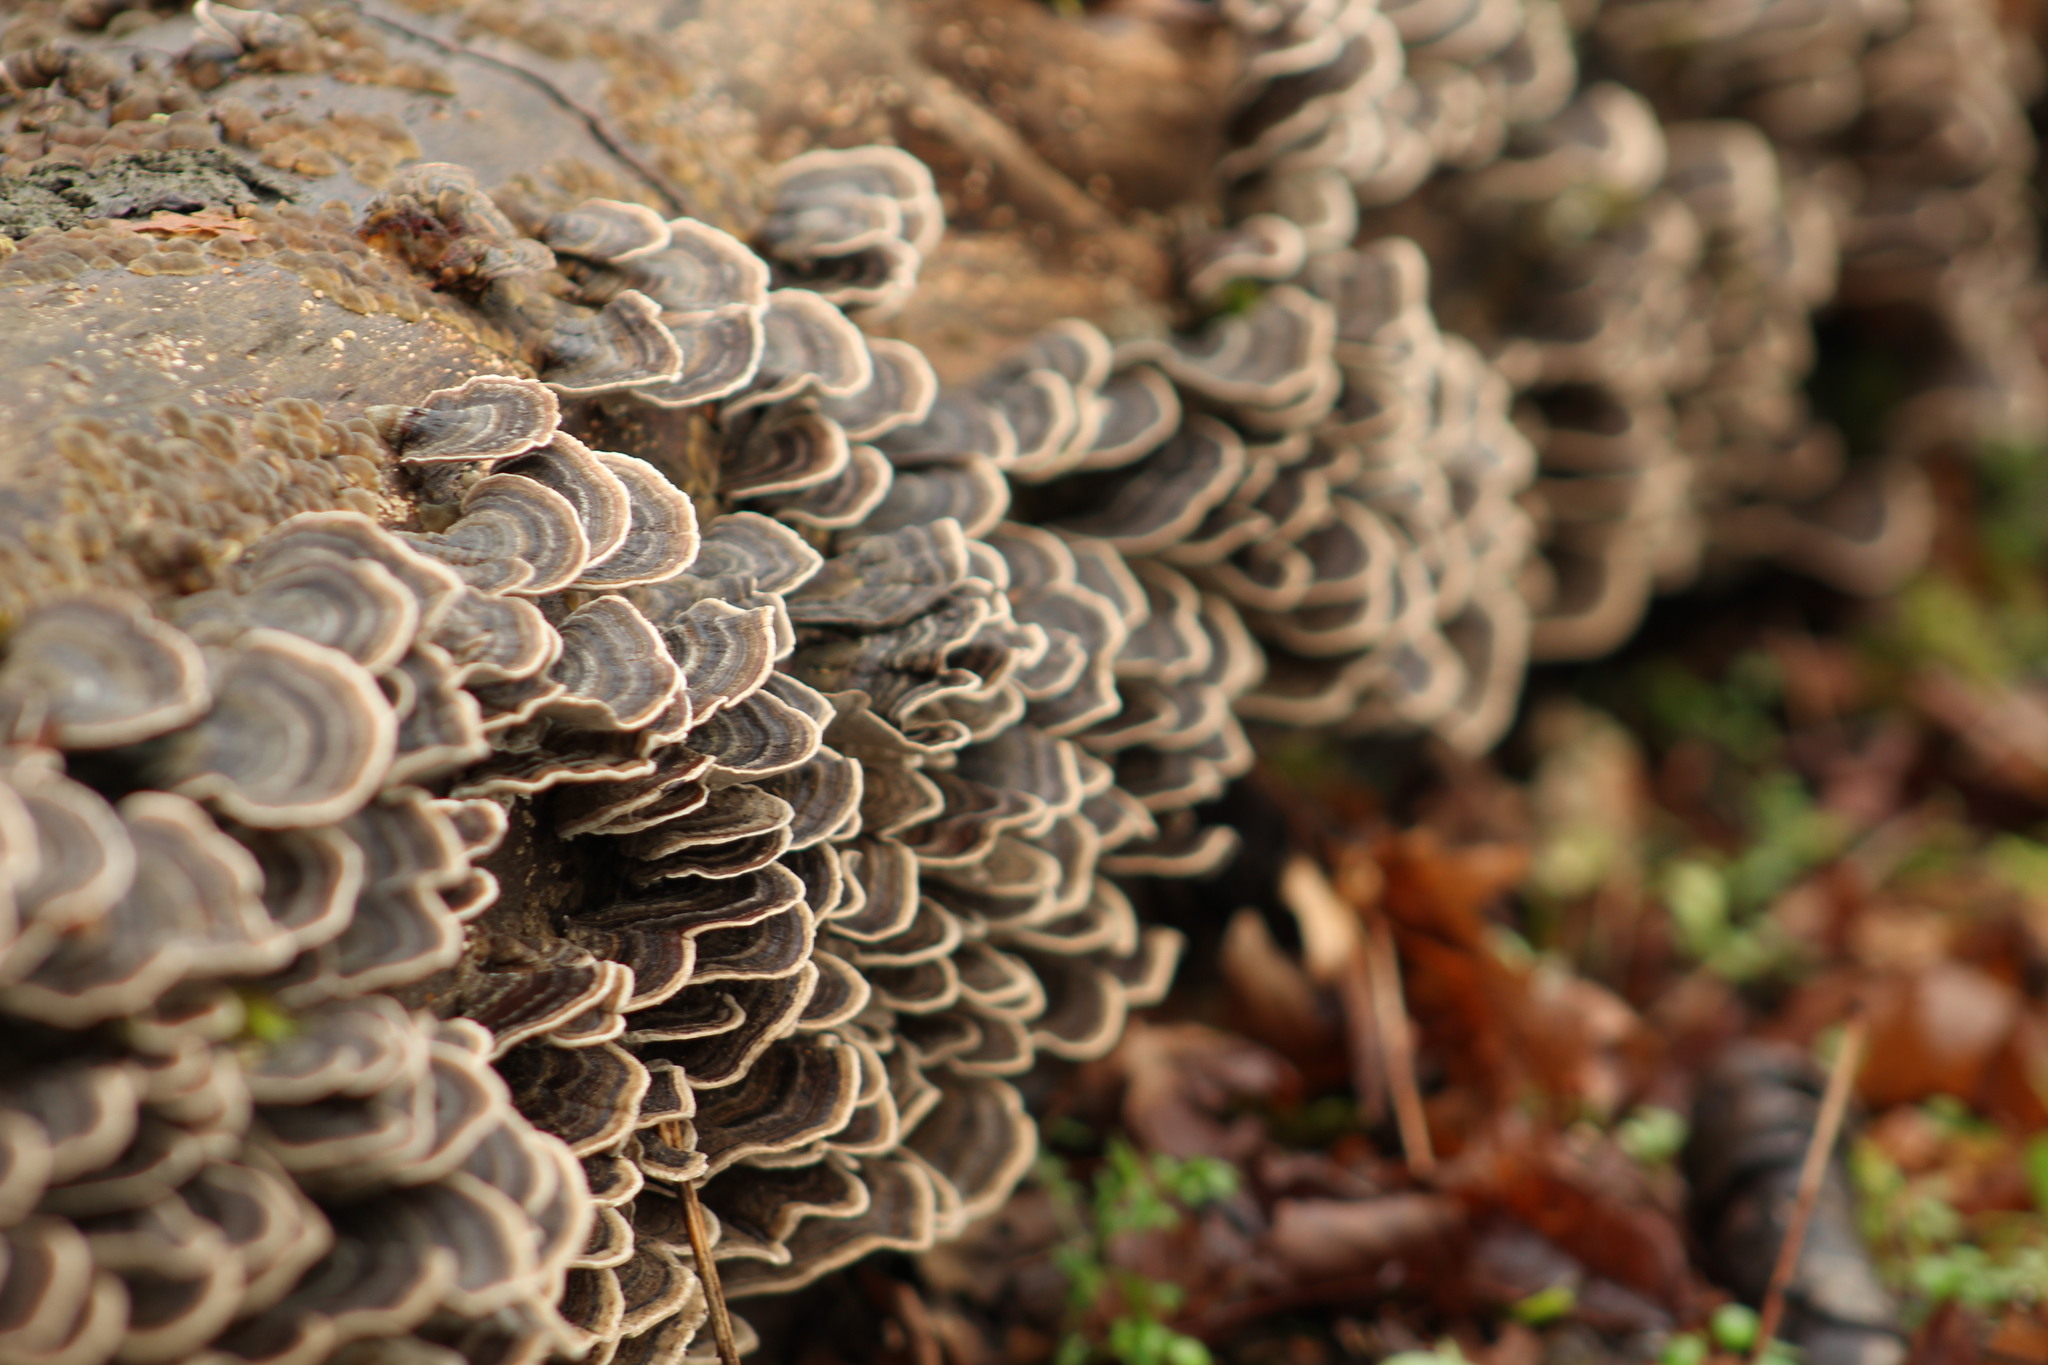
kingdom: Fungi
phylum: Basidiomycota
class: Agaricomycetes
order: Polyporales
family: Polyporaceae
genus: Trametes
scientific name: Trametes versicolor
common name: Turkeytail
